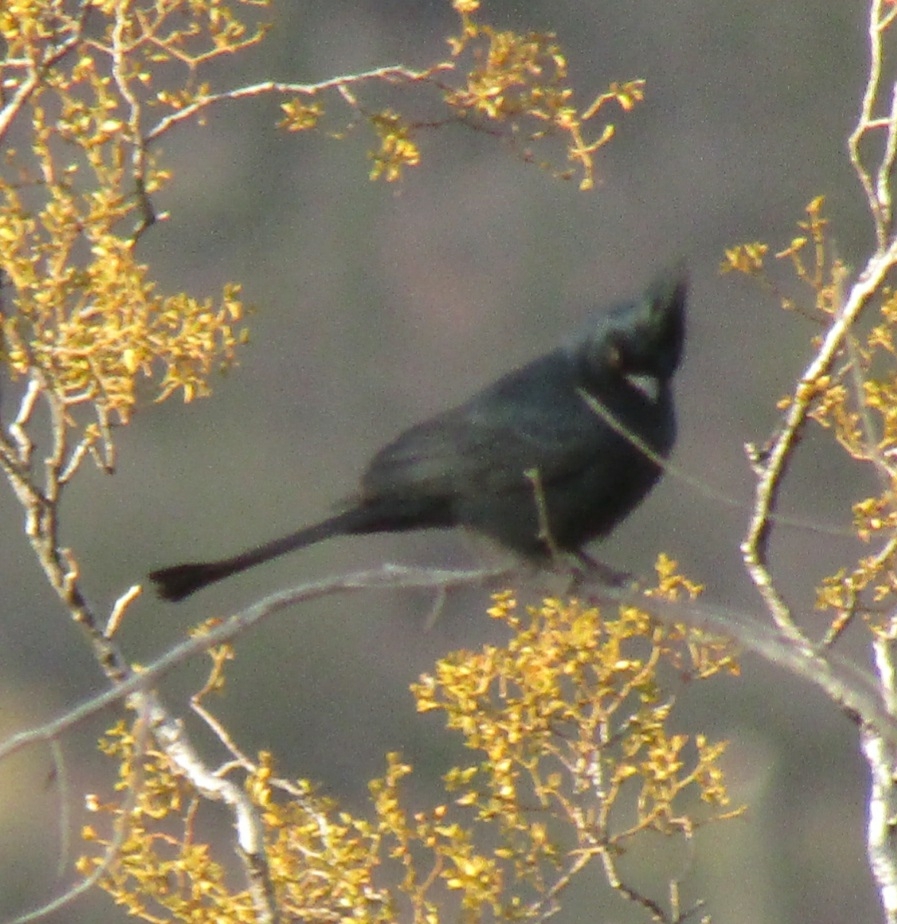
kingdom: Animalia
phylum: Chordata
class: Aves
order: Passeriformes
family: Ptilogonatidae
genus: Phainopepla
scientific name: Phainopepla nitens
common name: Phainopepla
